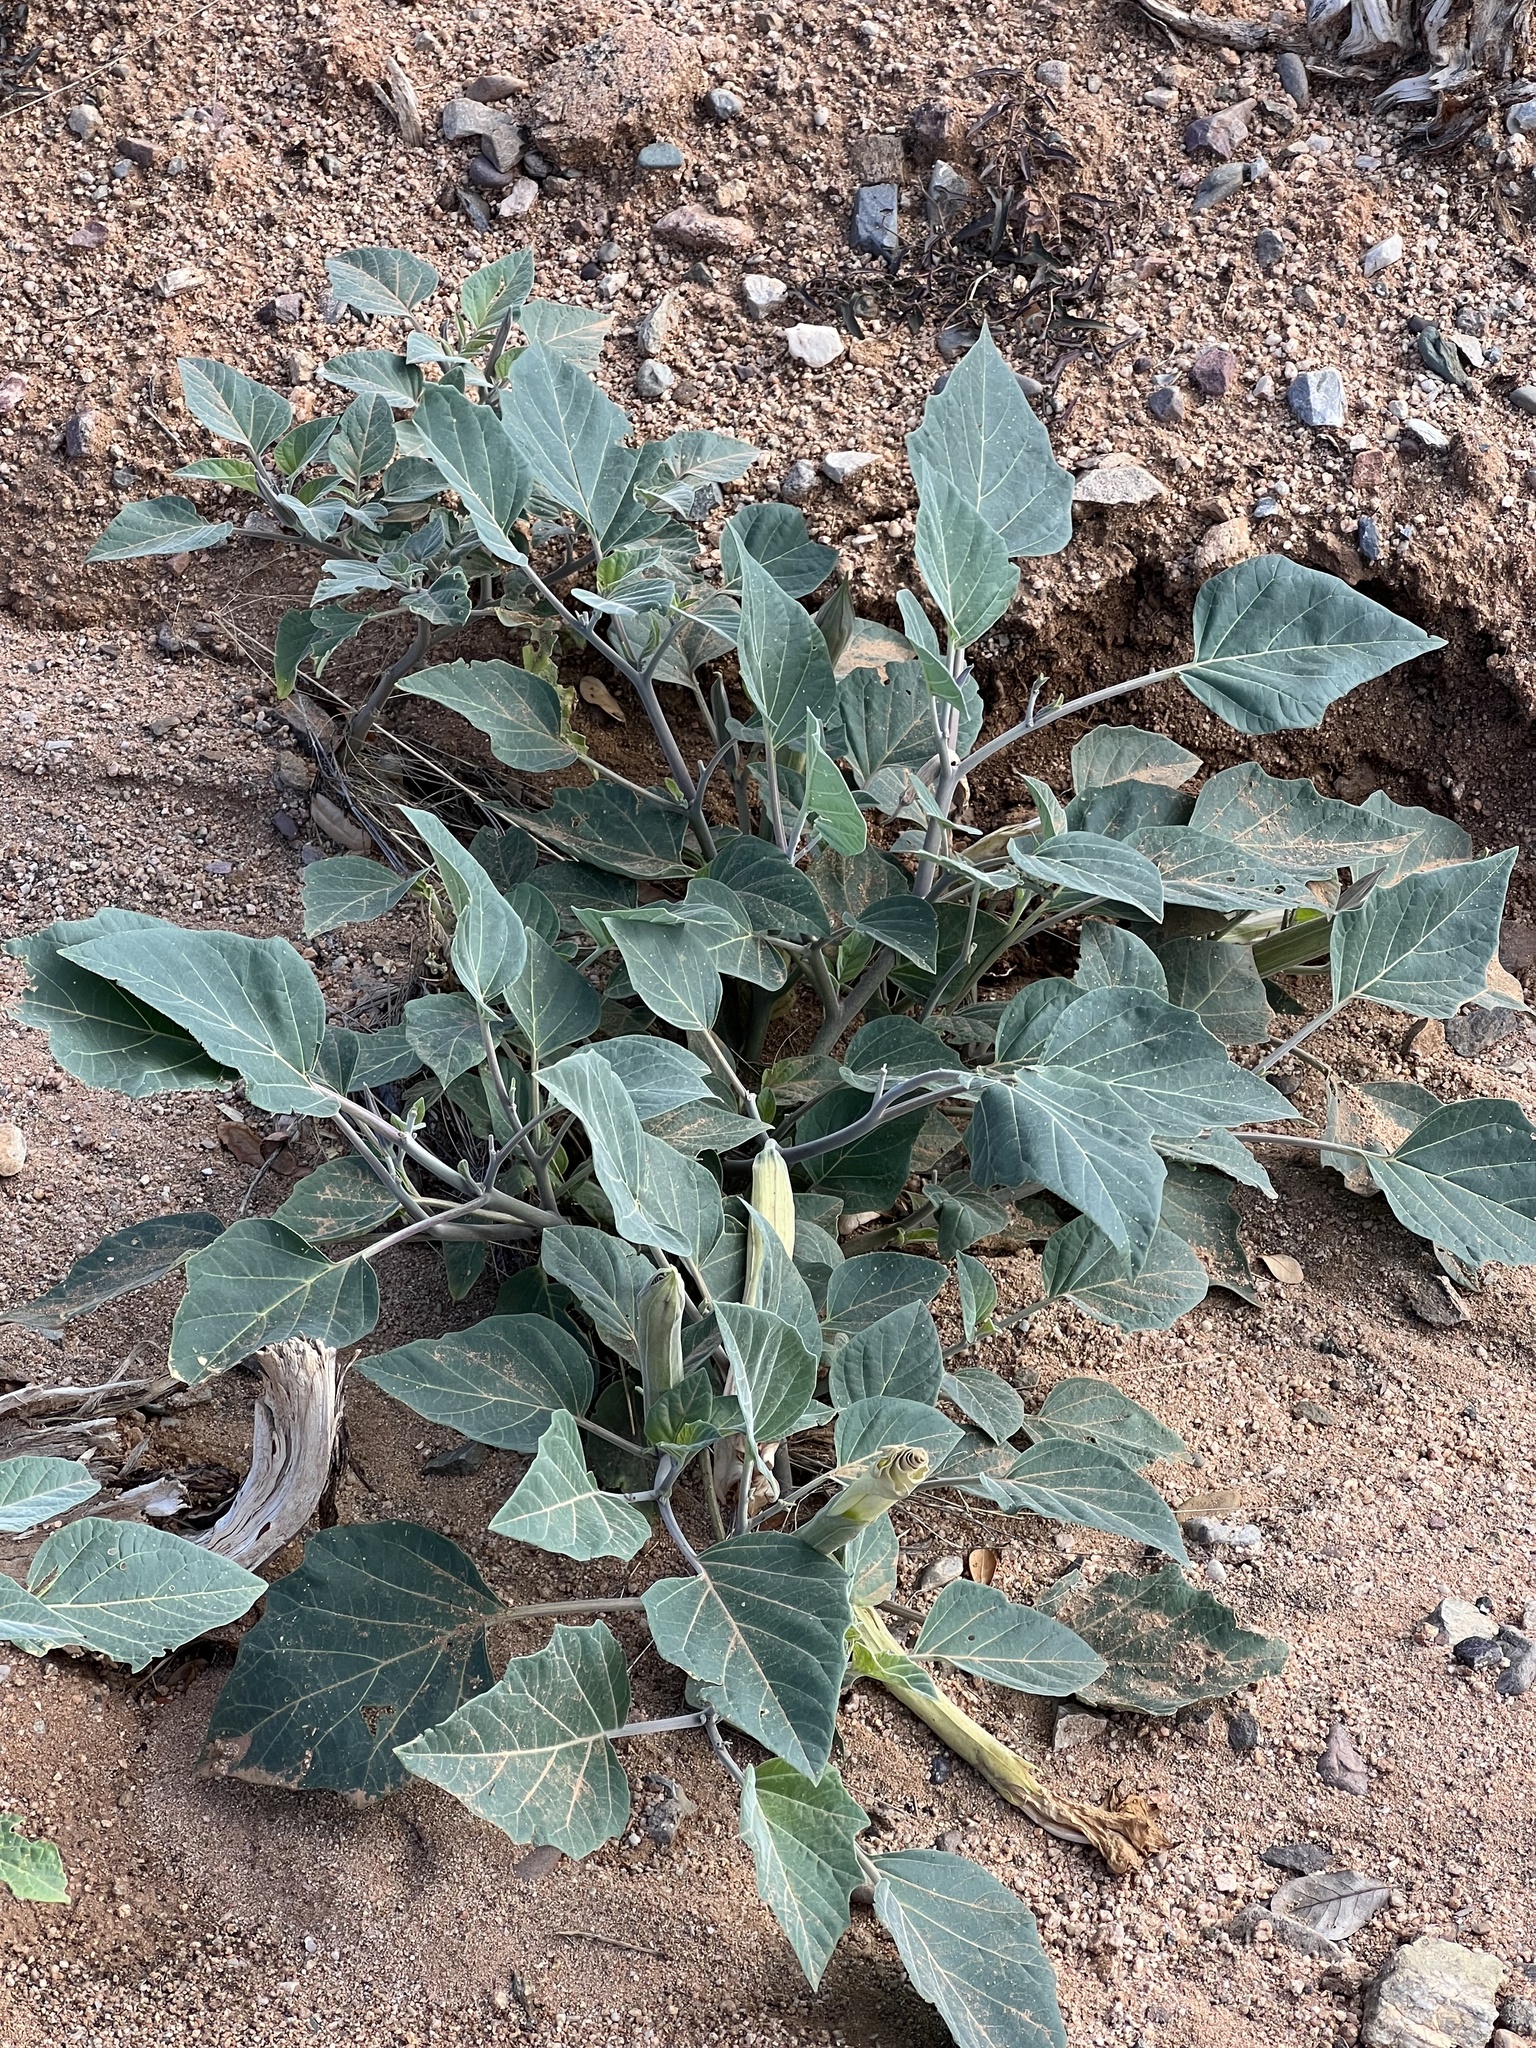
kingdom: Plantae
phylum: Tracheophyta
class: Magnoliopsida
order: Solanales
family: Solanaceae
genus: Datura
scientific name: Datura wrightii
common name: Sacred thorn-apple
